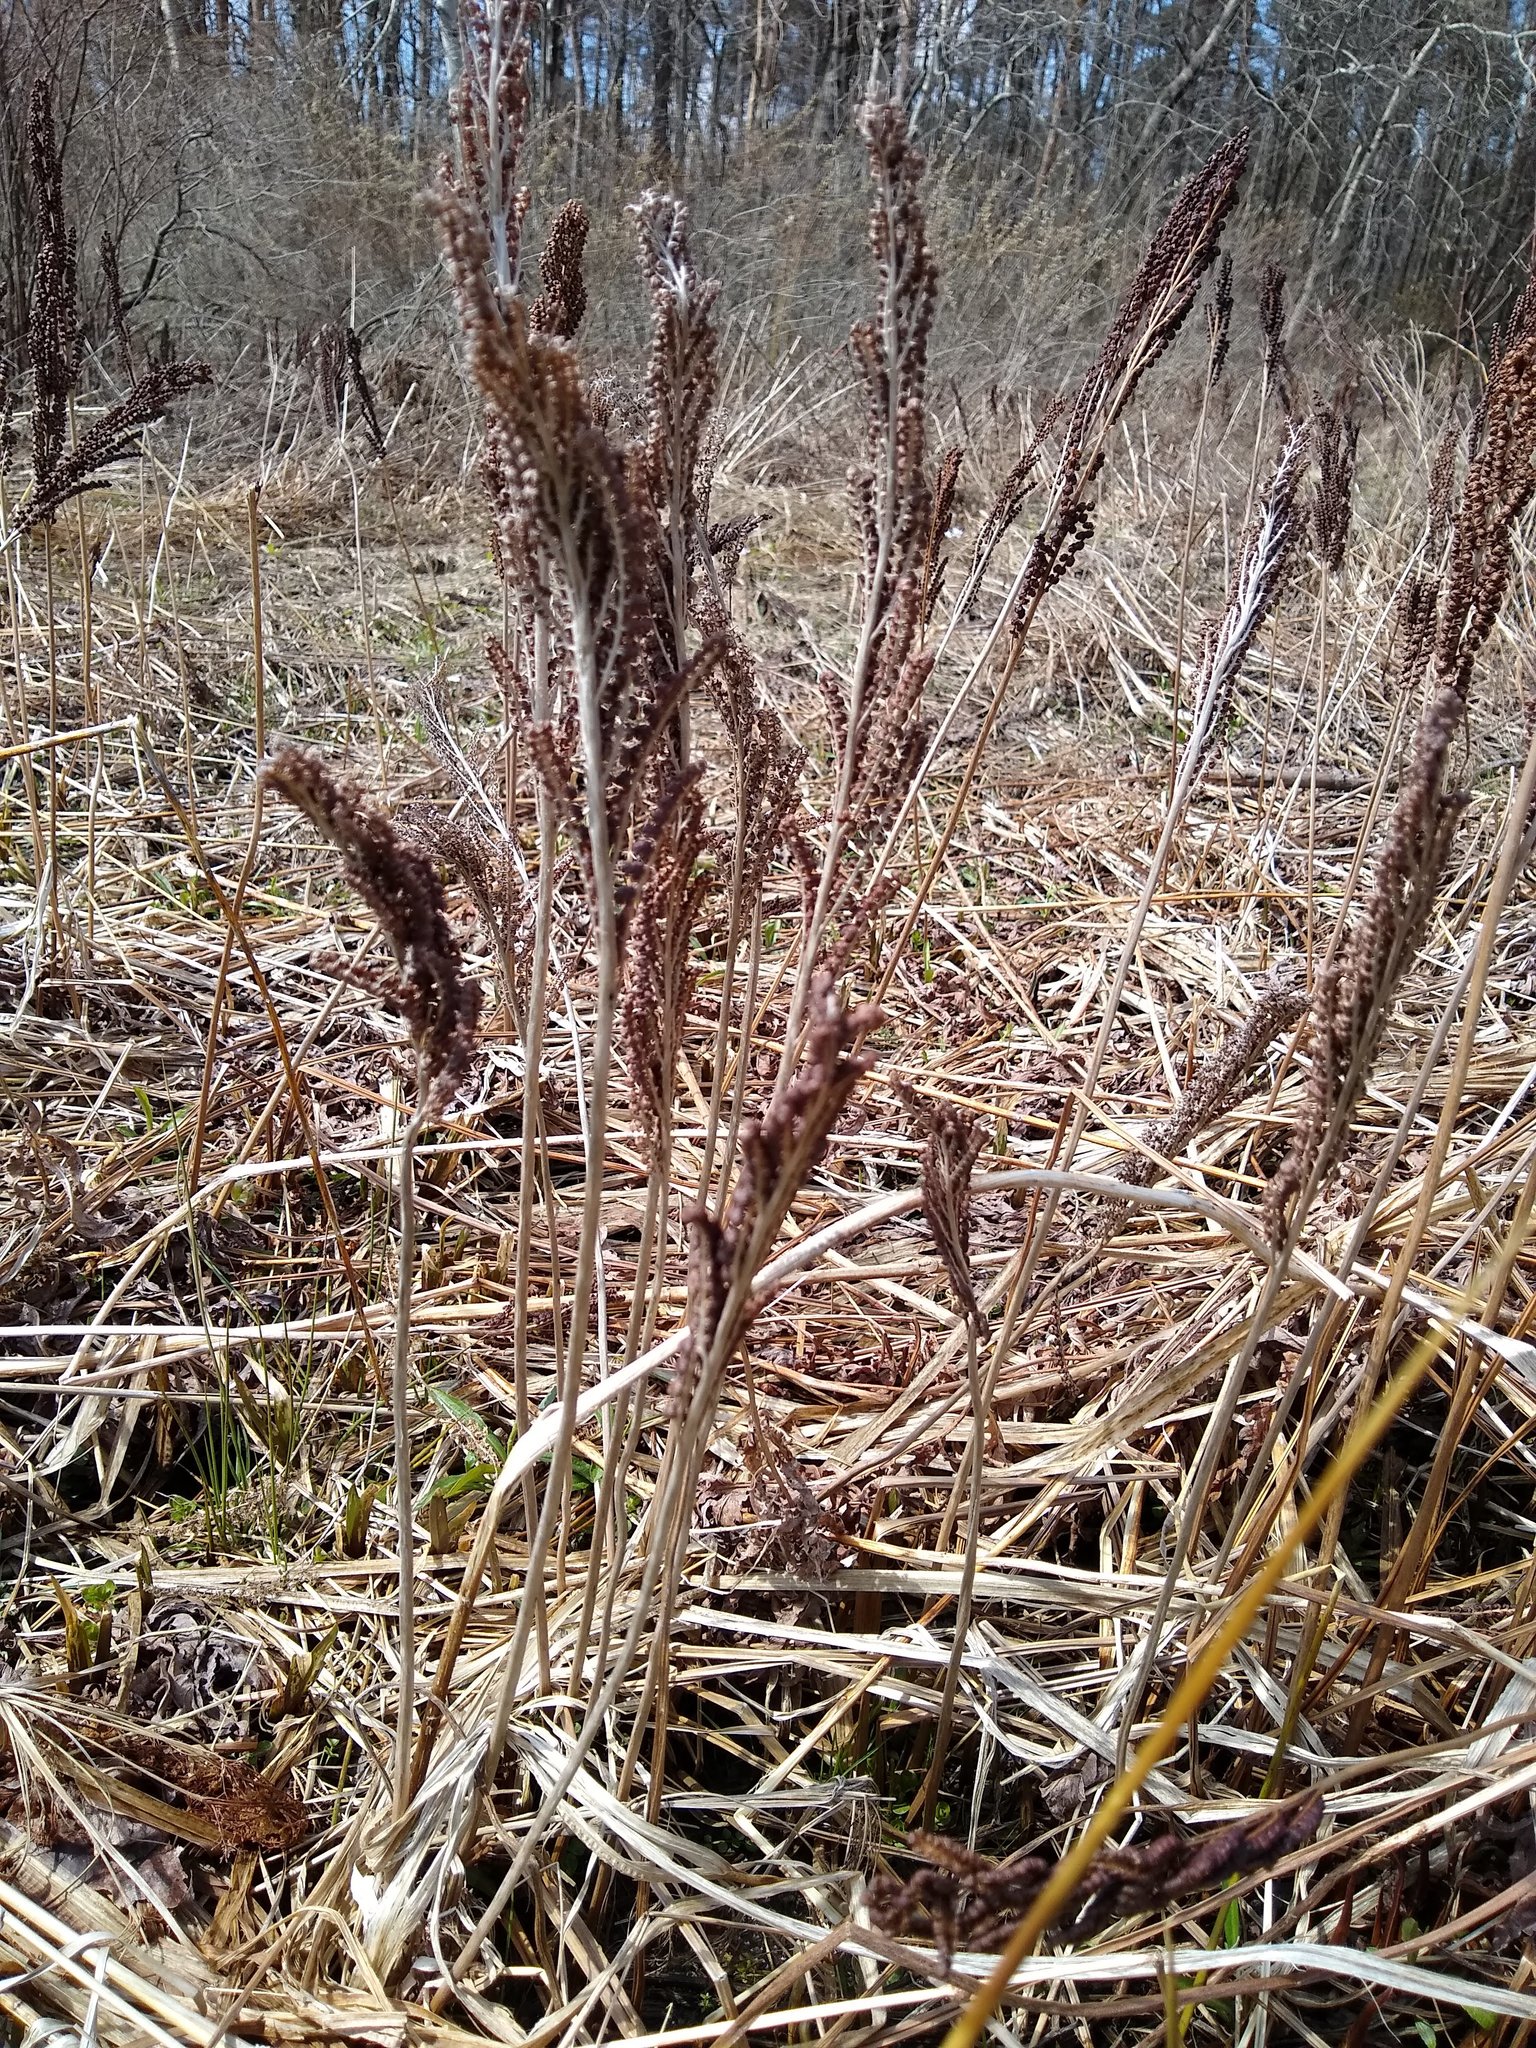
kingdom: Plantae
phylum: Tracheophyta
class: Polypodiopsida
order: Polypodiales
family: Onocleaceae
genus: Onoclea
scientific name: Onoclea sensibilis
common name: Sensitive fern
